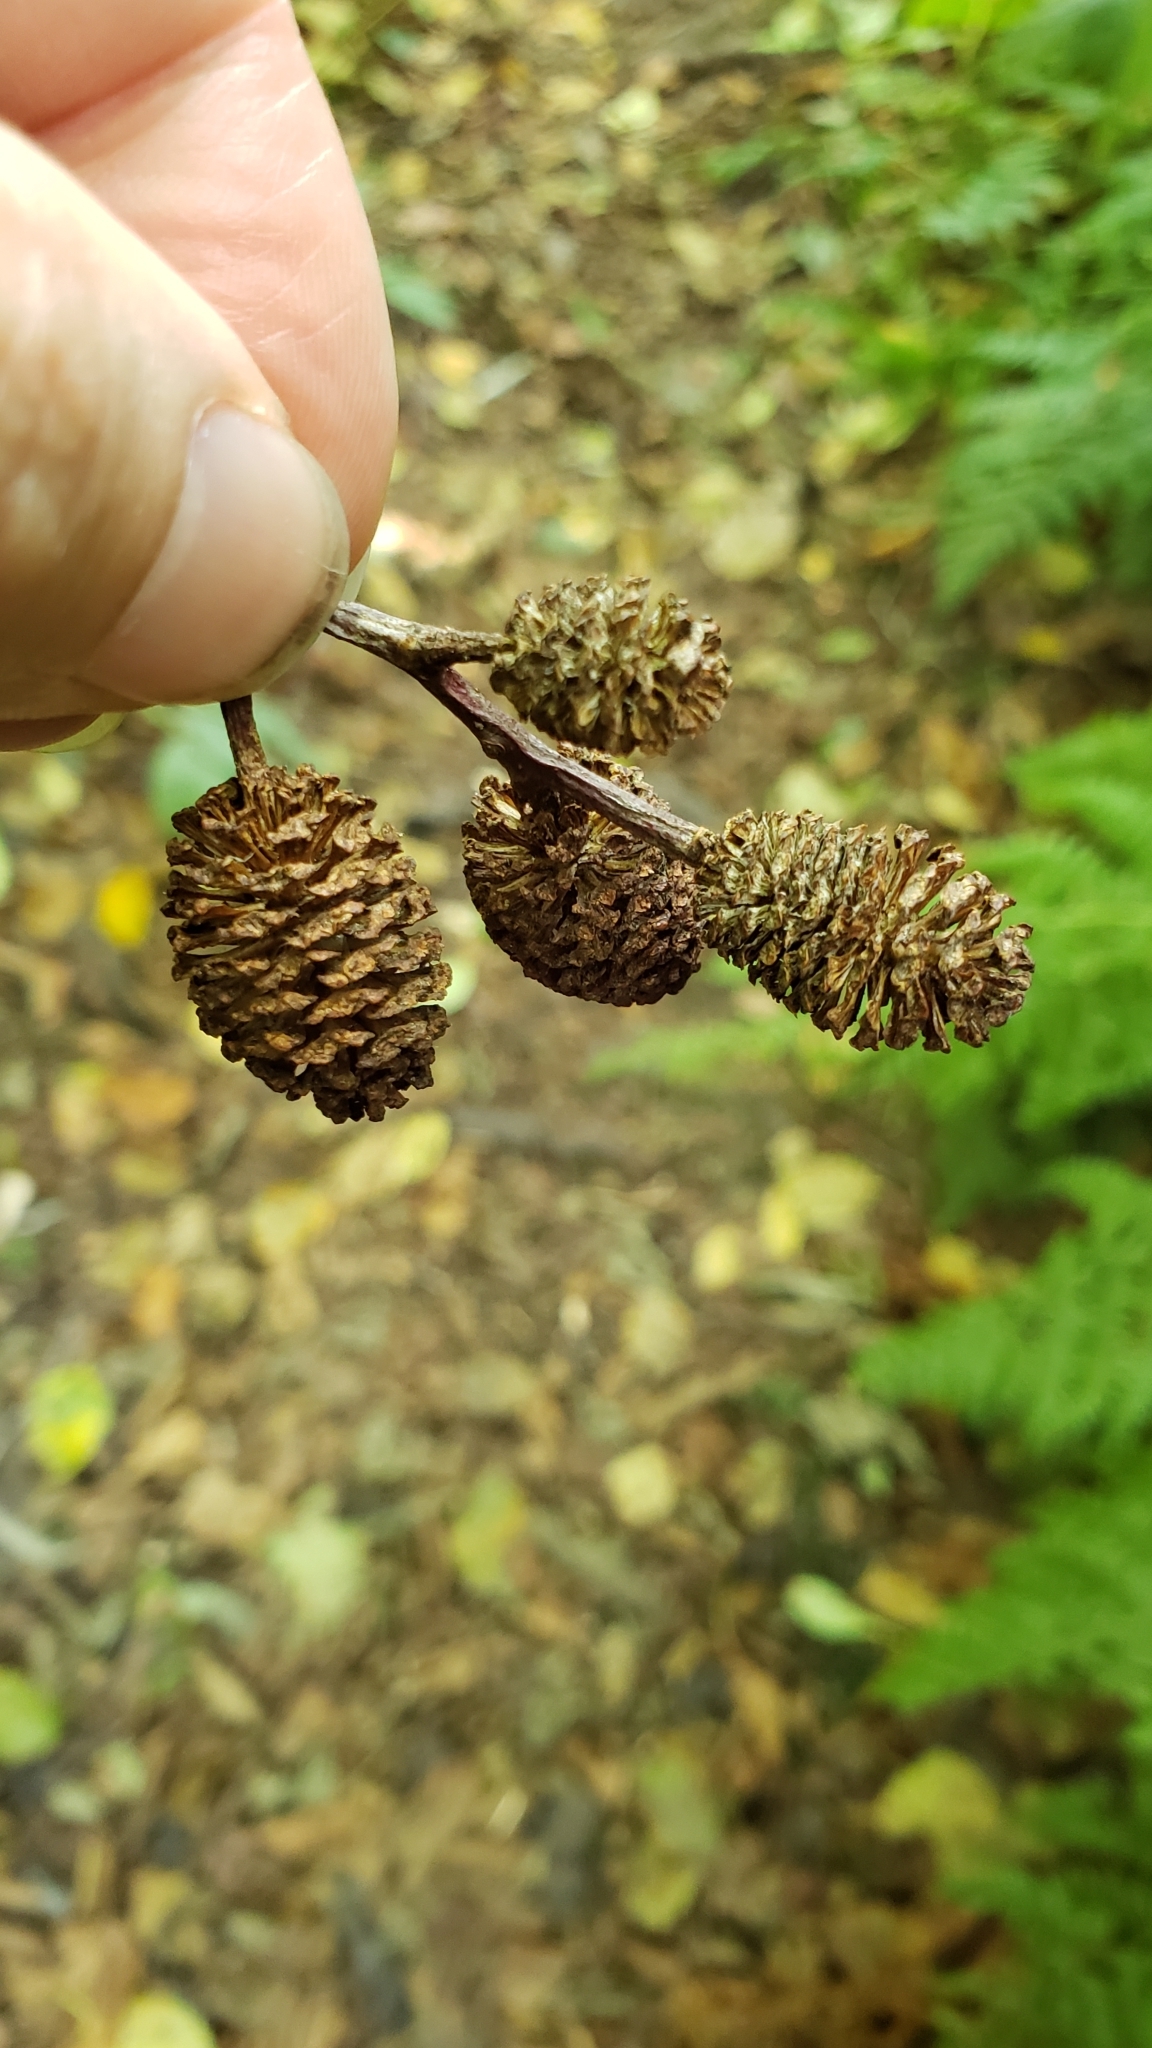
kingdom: Plantae
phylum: Tracheophyta
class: Magnoliopsida
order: Fagales
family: Betulaceae
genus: Alnus
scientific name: Alnus rubra
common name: Red alder
